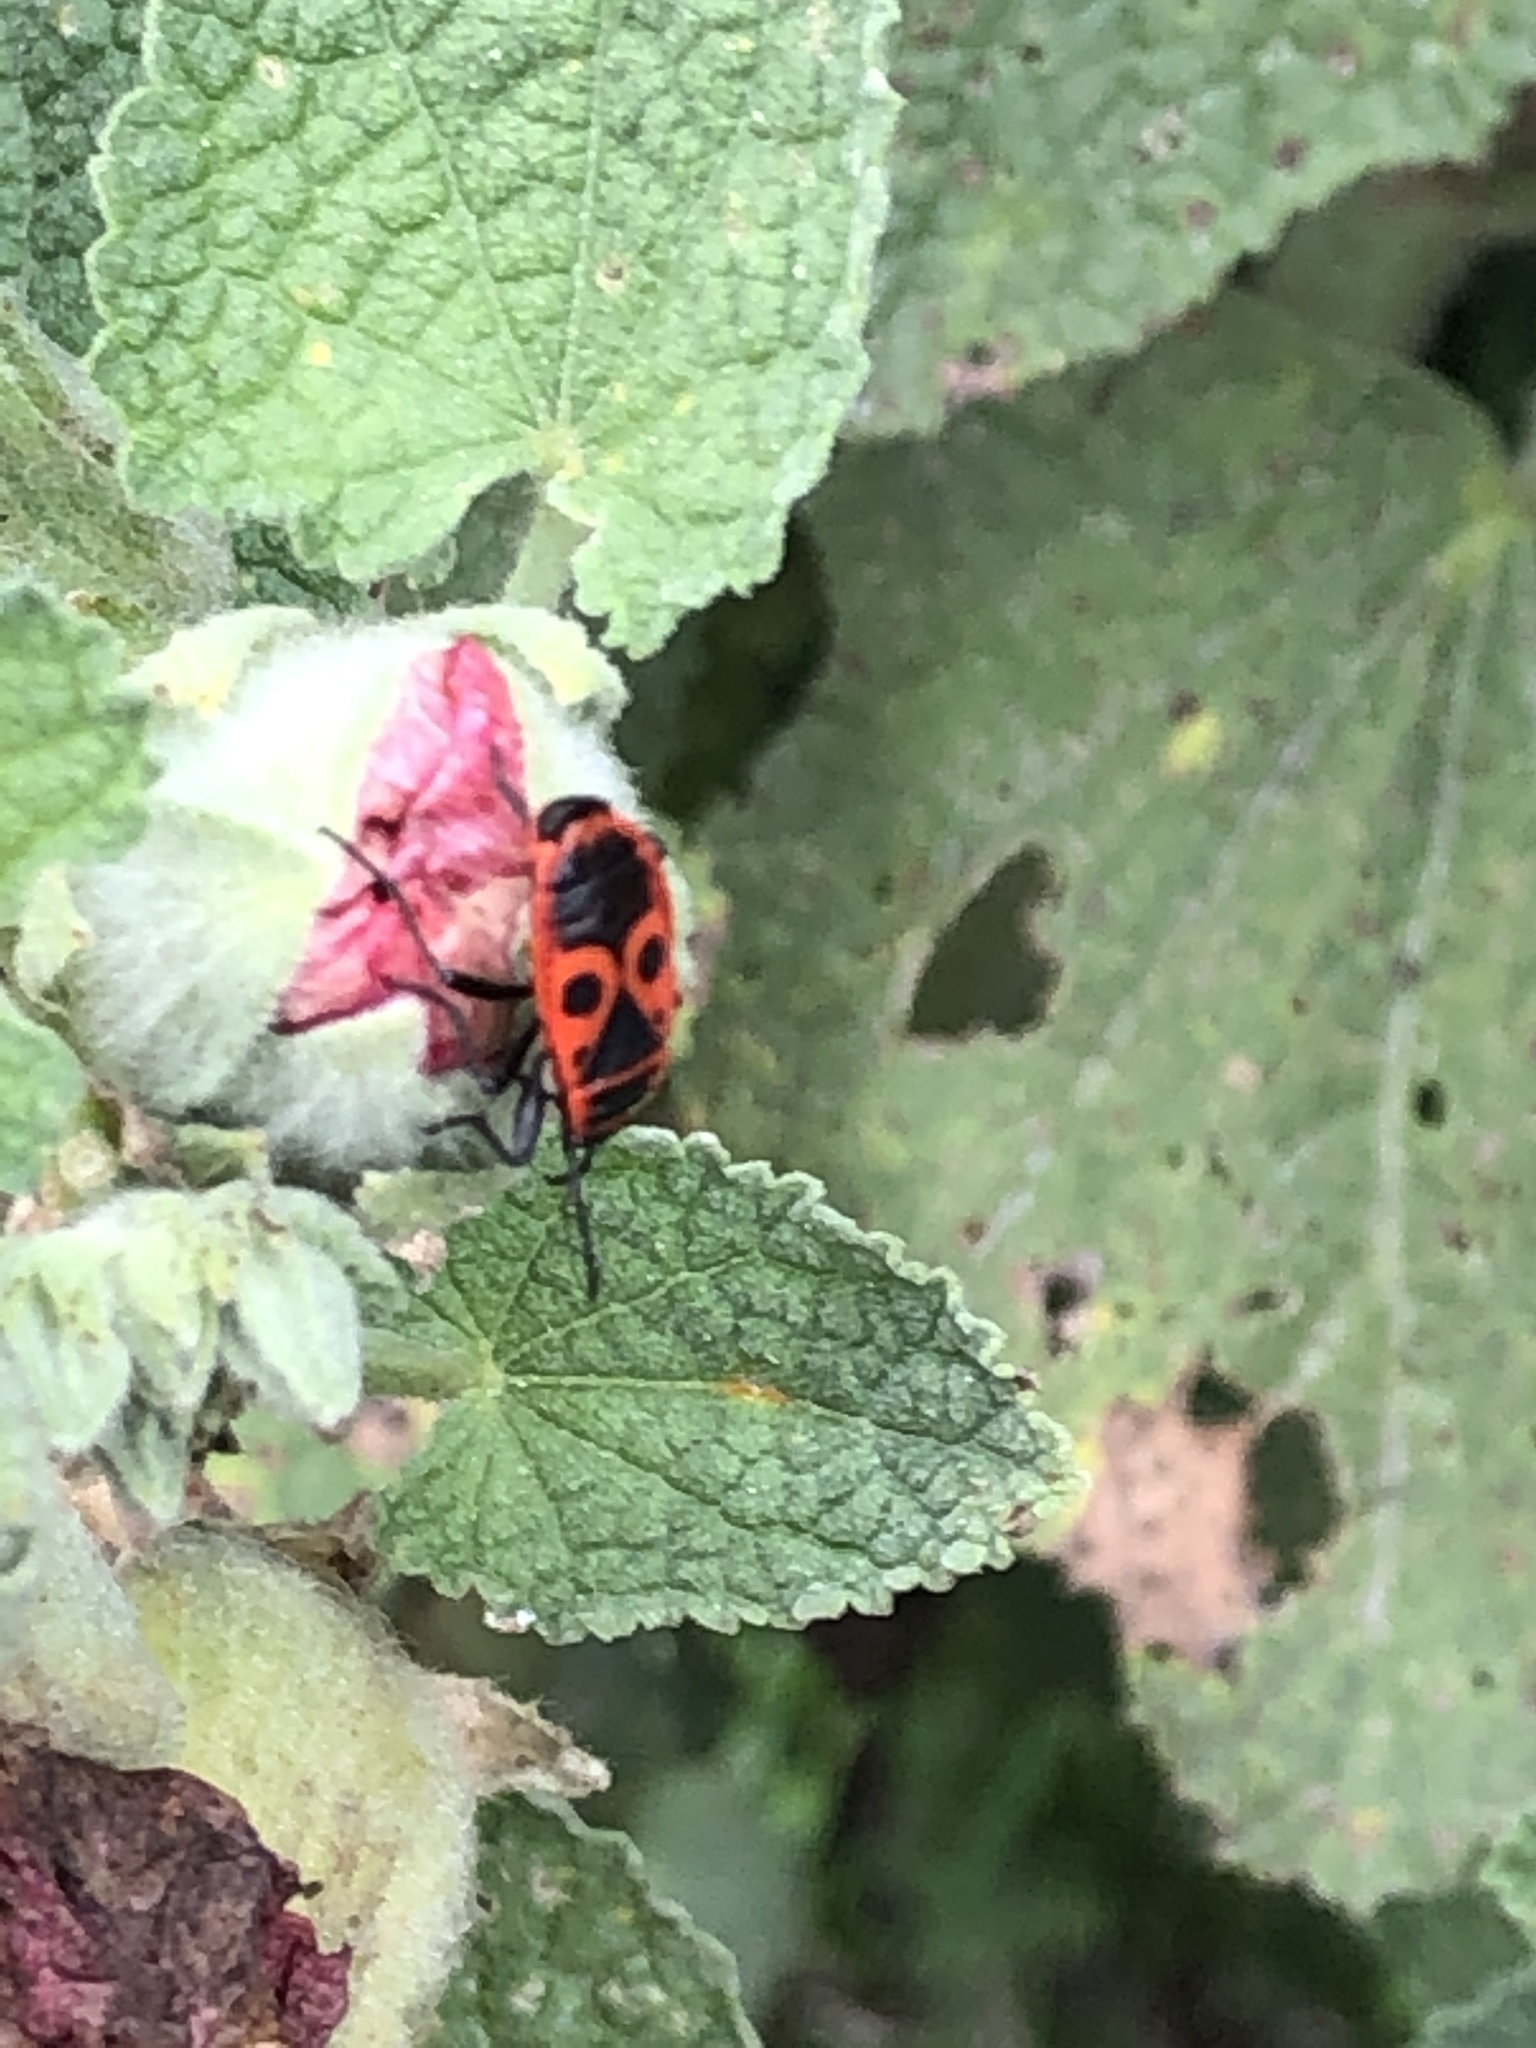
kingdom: Animalia
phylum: Arthropoda
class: Insecta
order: Hemiptera
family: Pyrrhocoridae
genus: Pyrrhocoris
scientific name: Pyrrhocoris apterus
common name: Firebug
